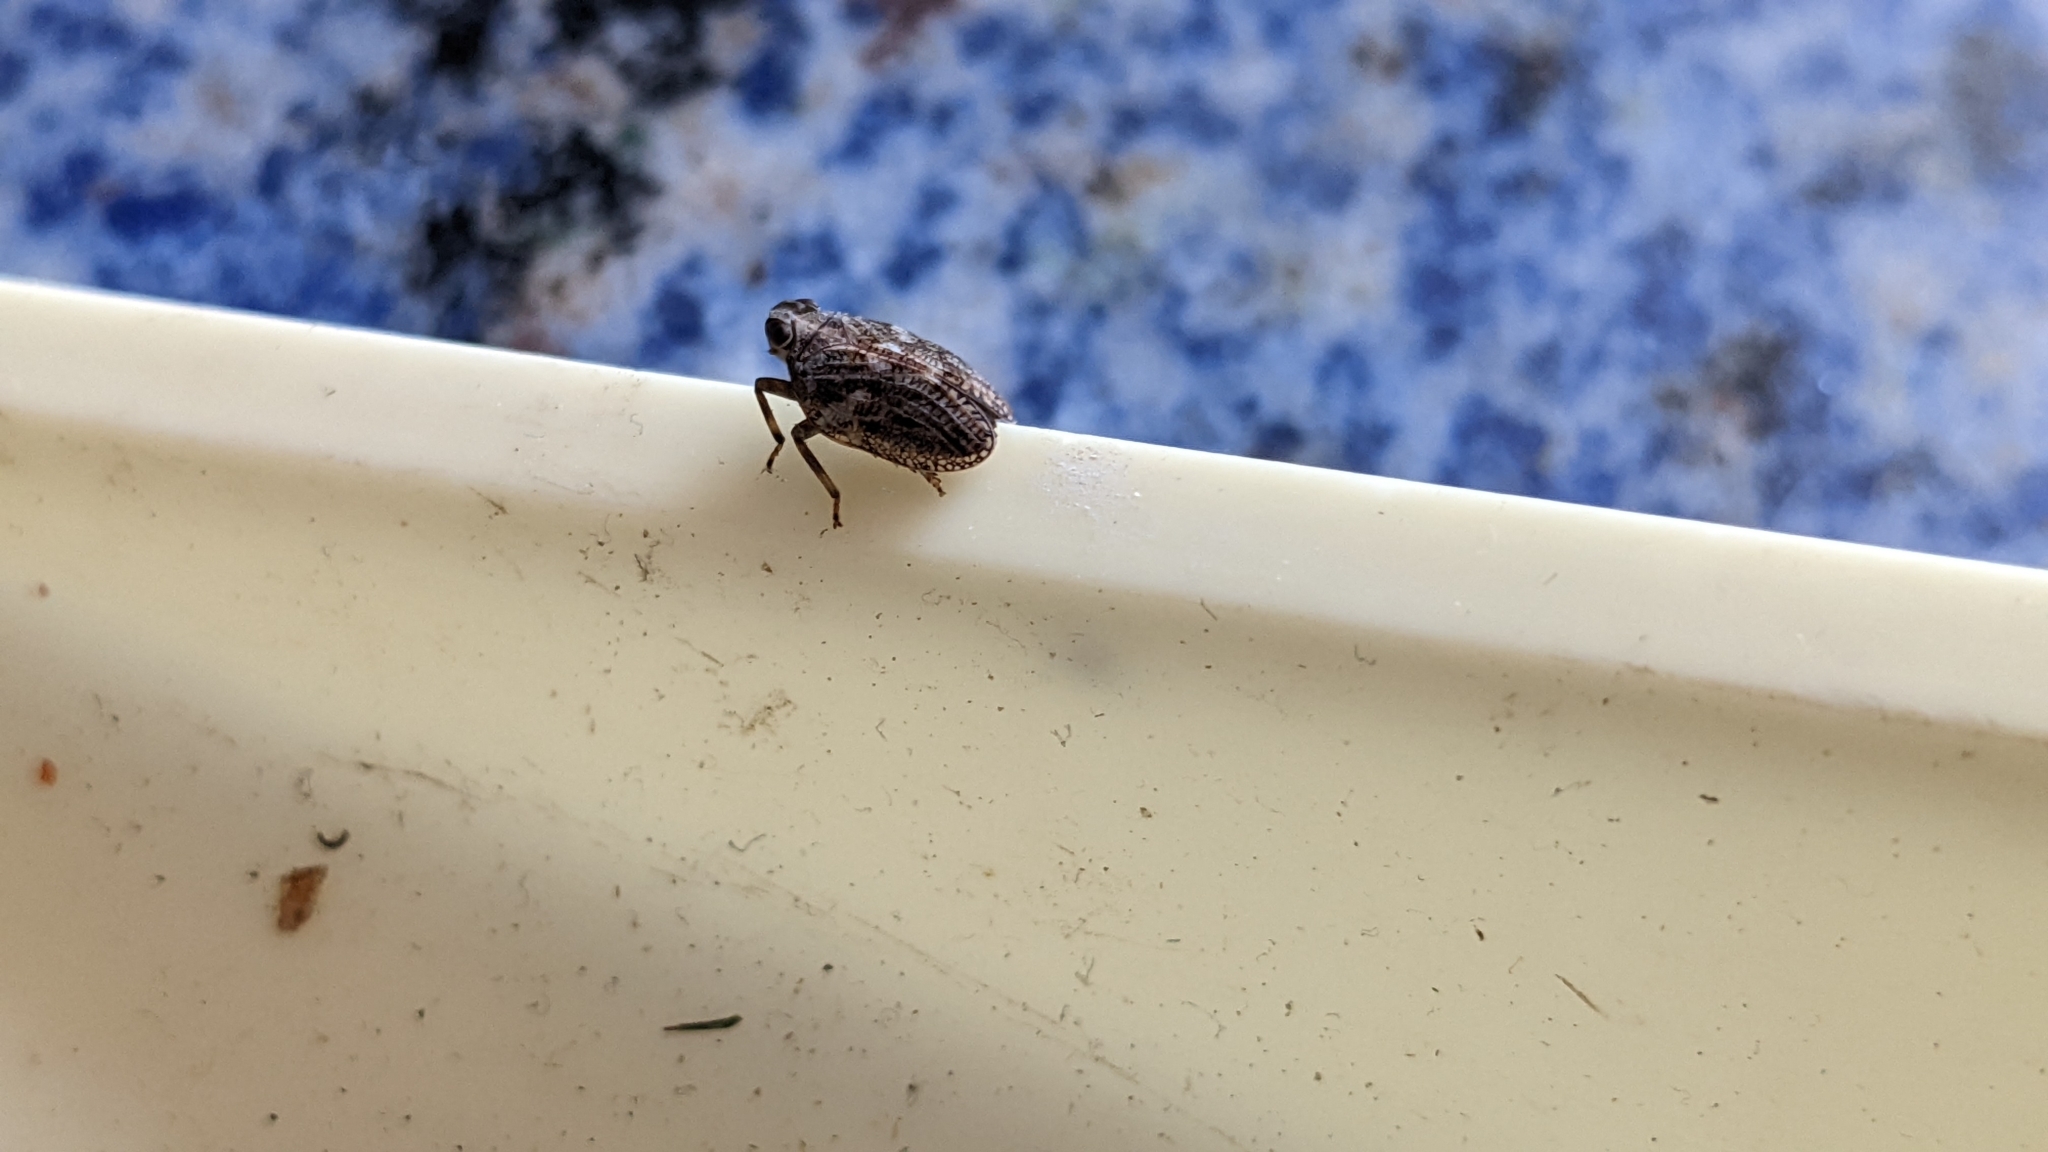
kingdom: Animalia
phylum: Arthropoda
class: Insecta
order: Hemiptera
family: Issidae
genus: Issus
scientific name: Issus coleoptratus
